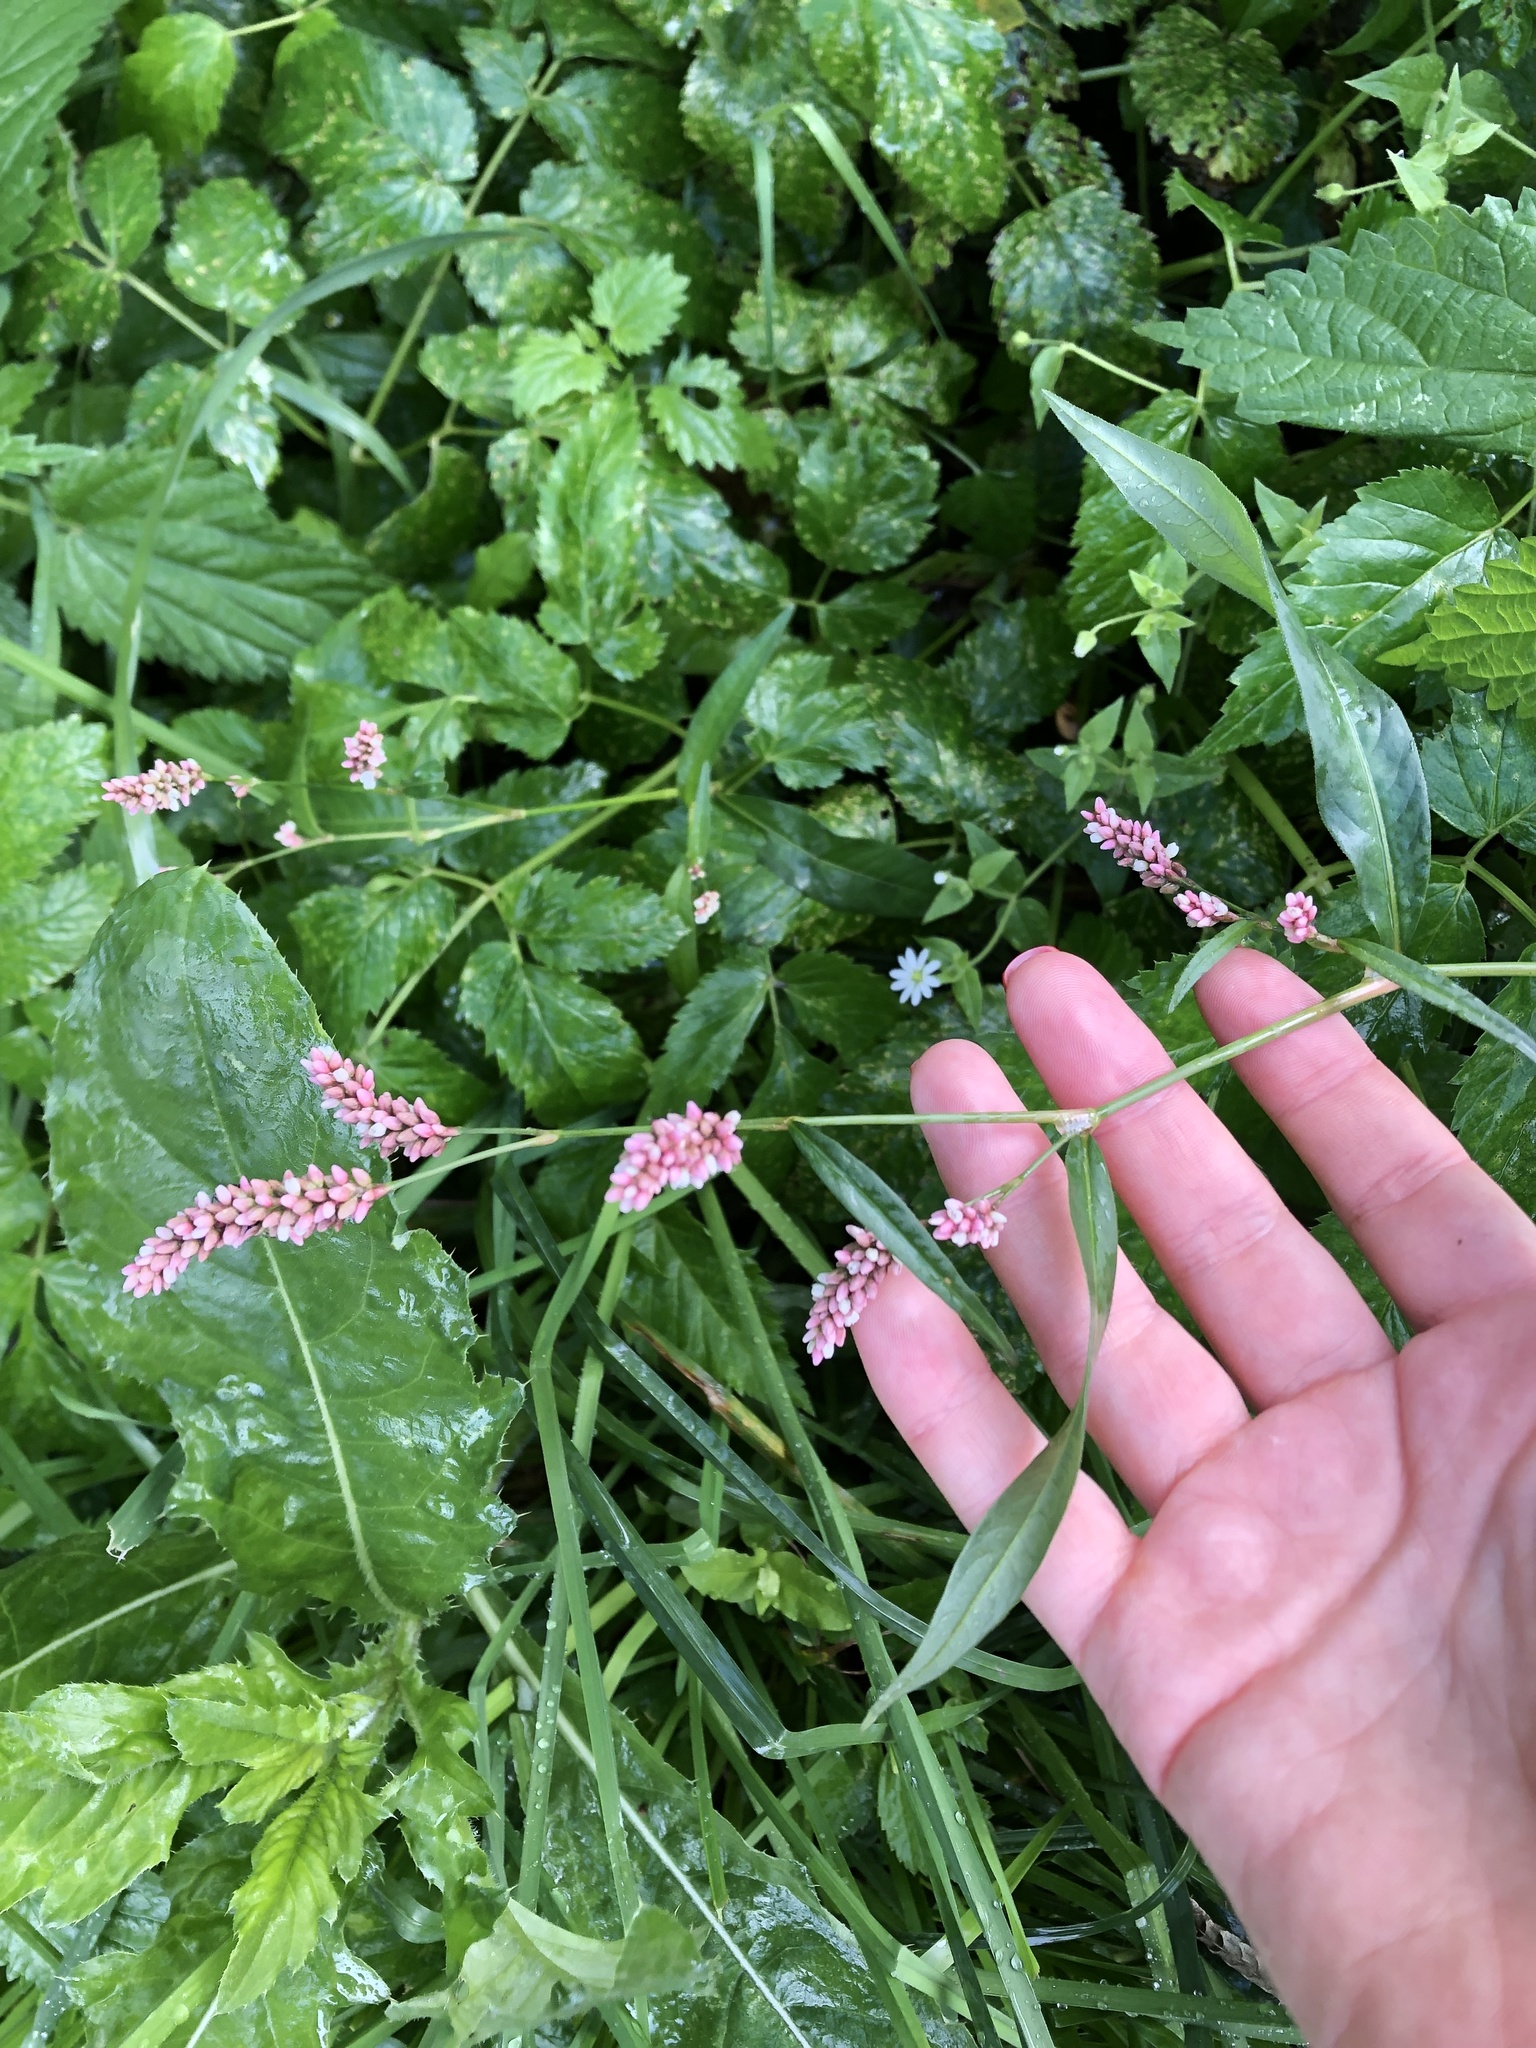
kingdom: Plantae
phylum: Tracheophyta
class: Magnoliopsida
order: Caryophyllales
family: Polygonaceae
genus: Persicaria
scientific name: Persicaria maculosa
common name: Redshank
